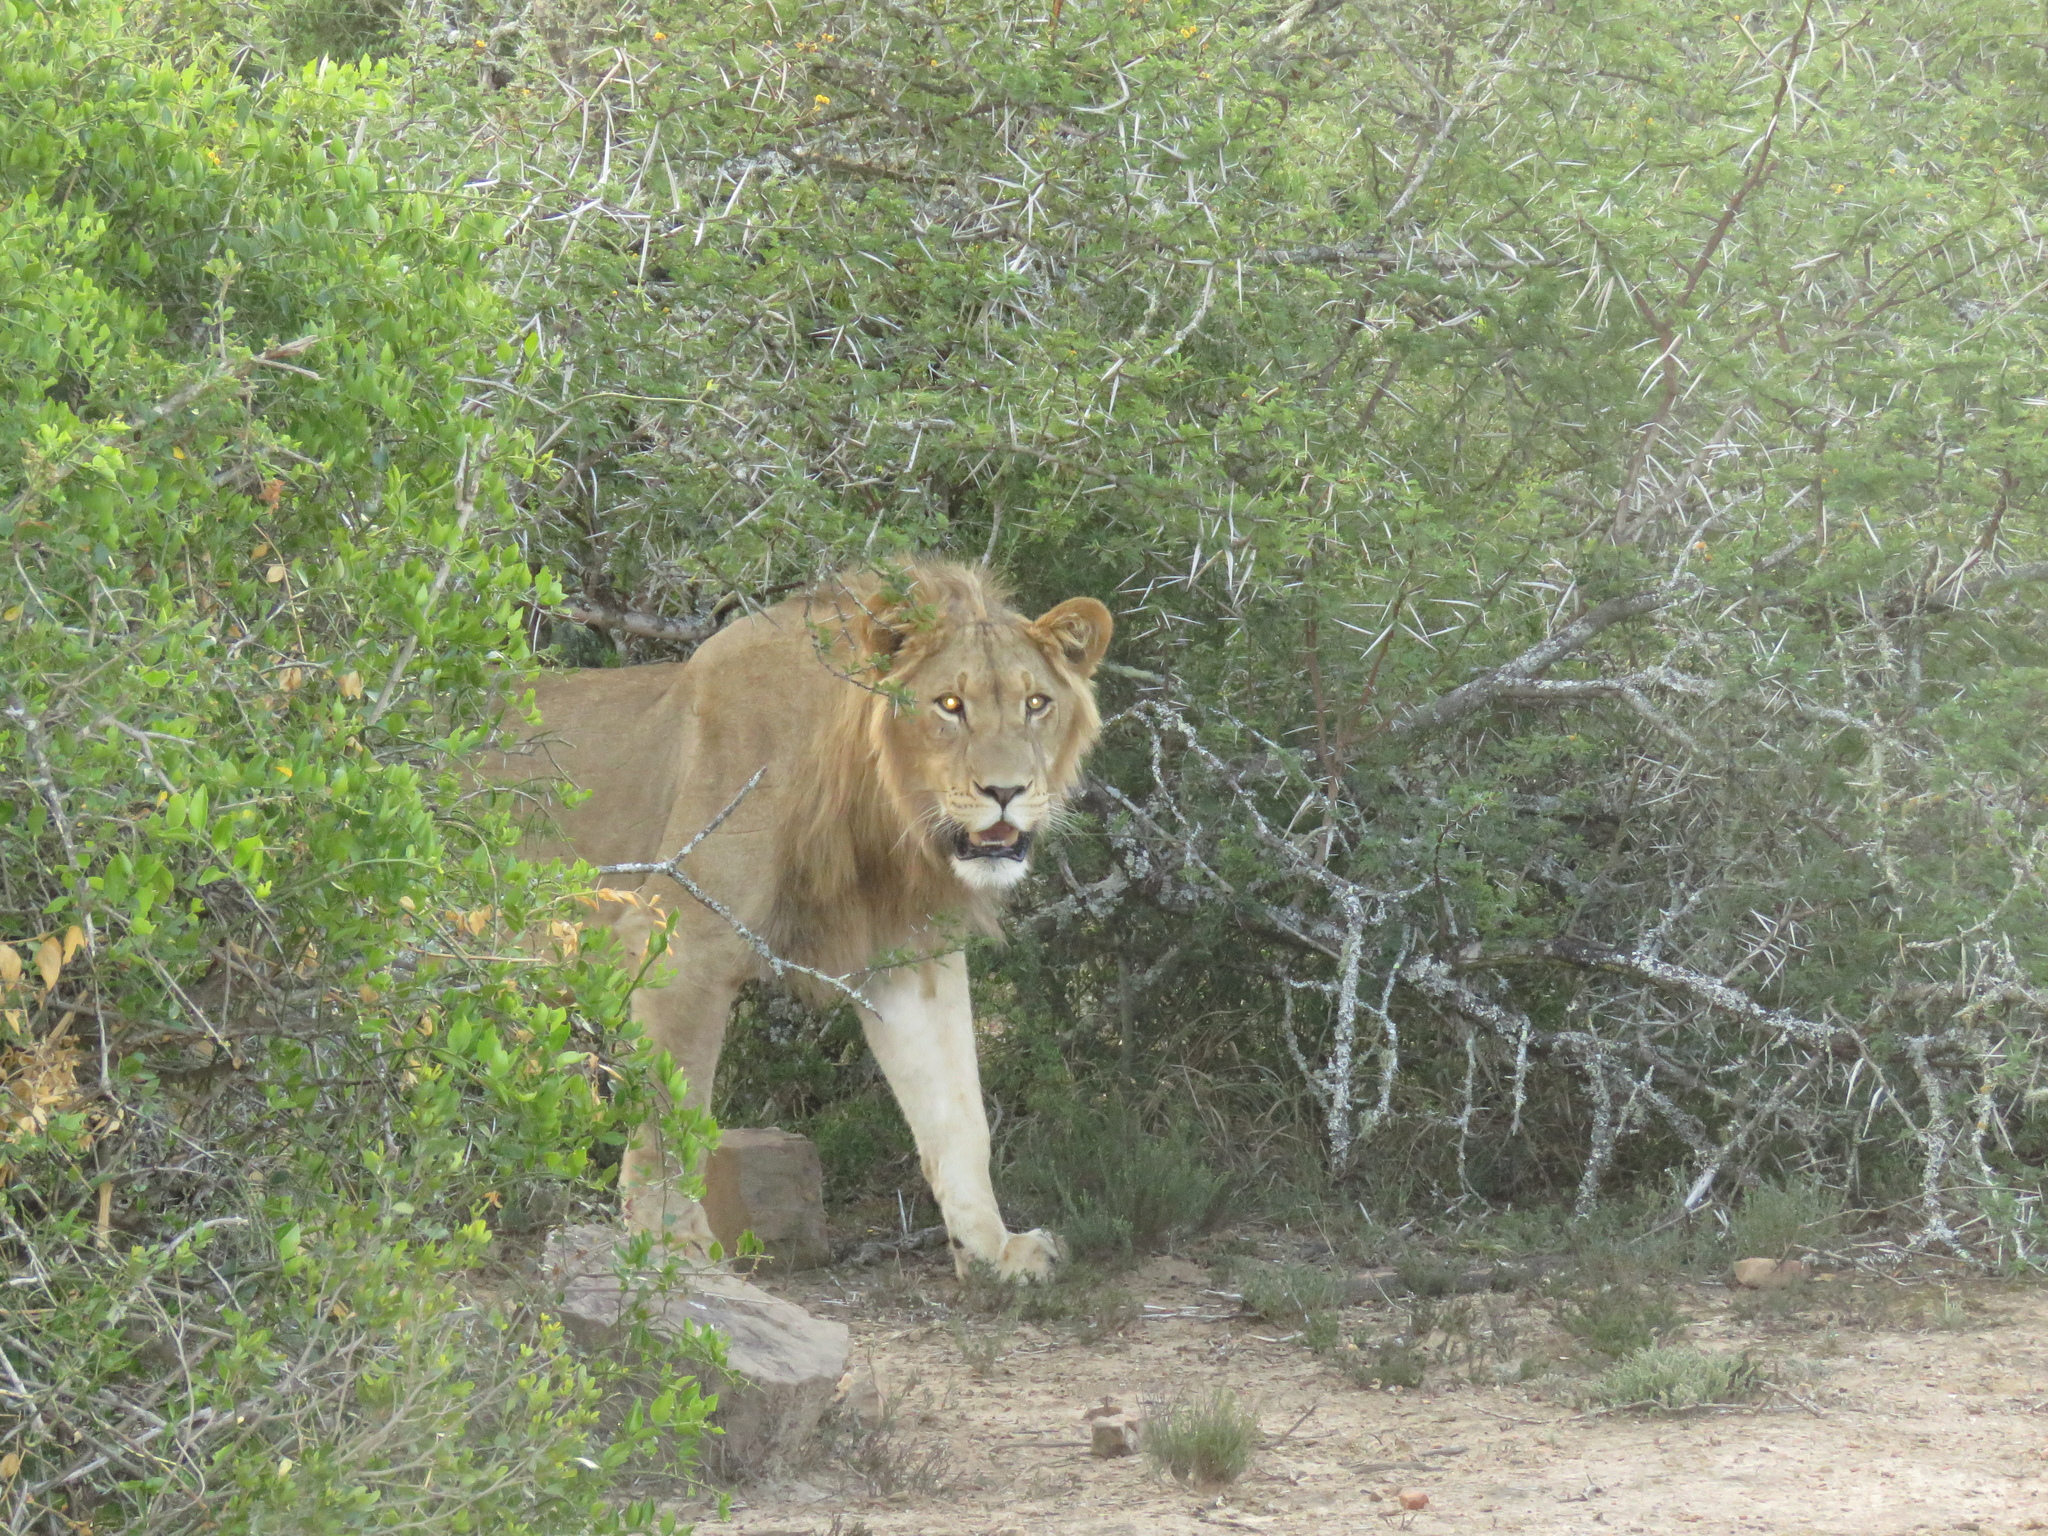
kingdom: Animalia
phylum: Chordata
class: Mammalia
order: Carnivora
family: Felidae
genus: Panthera
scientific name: Panthera leo
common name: Lion
